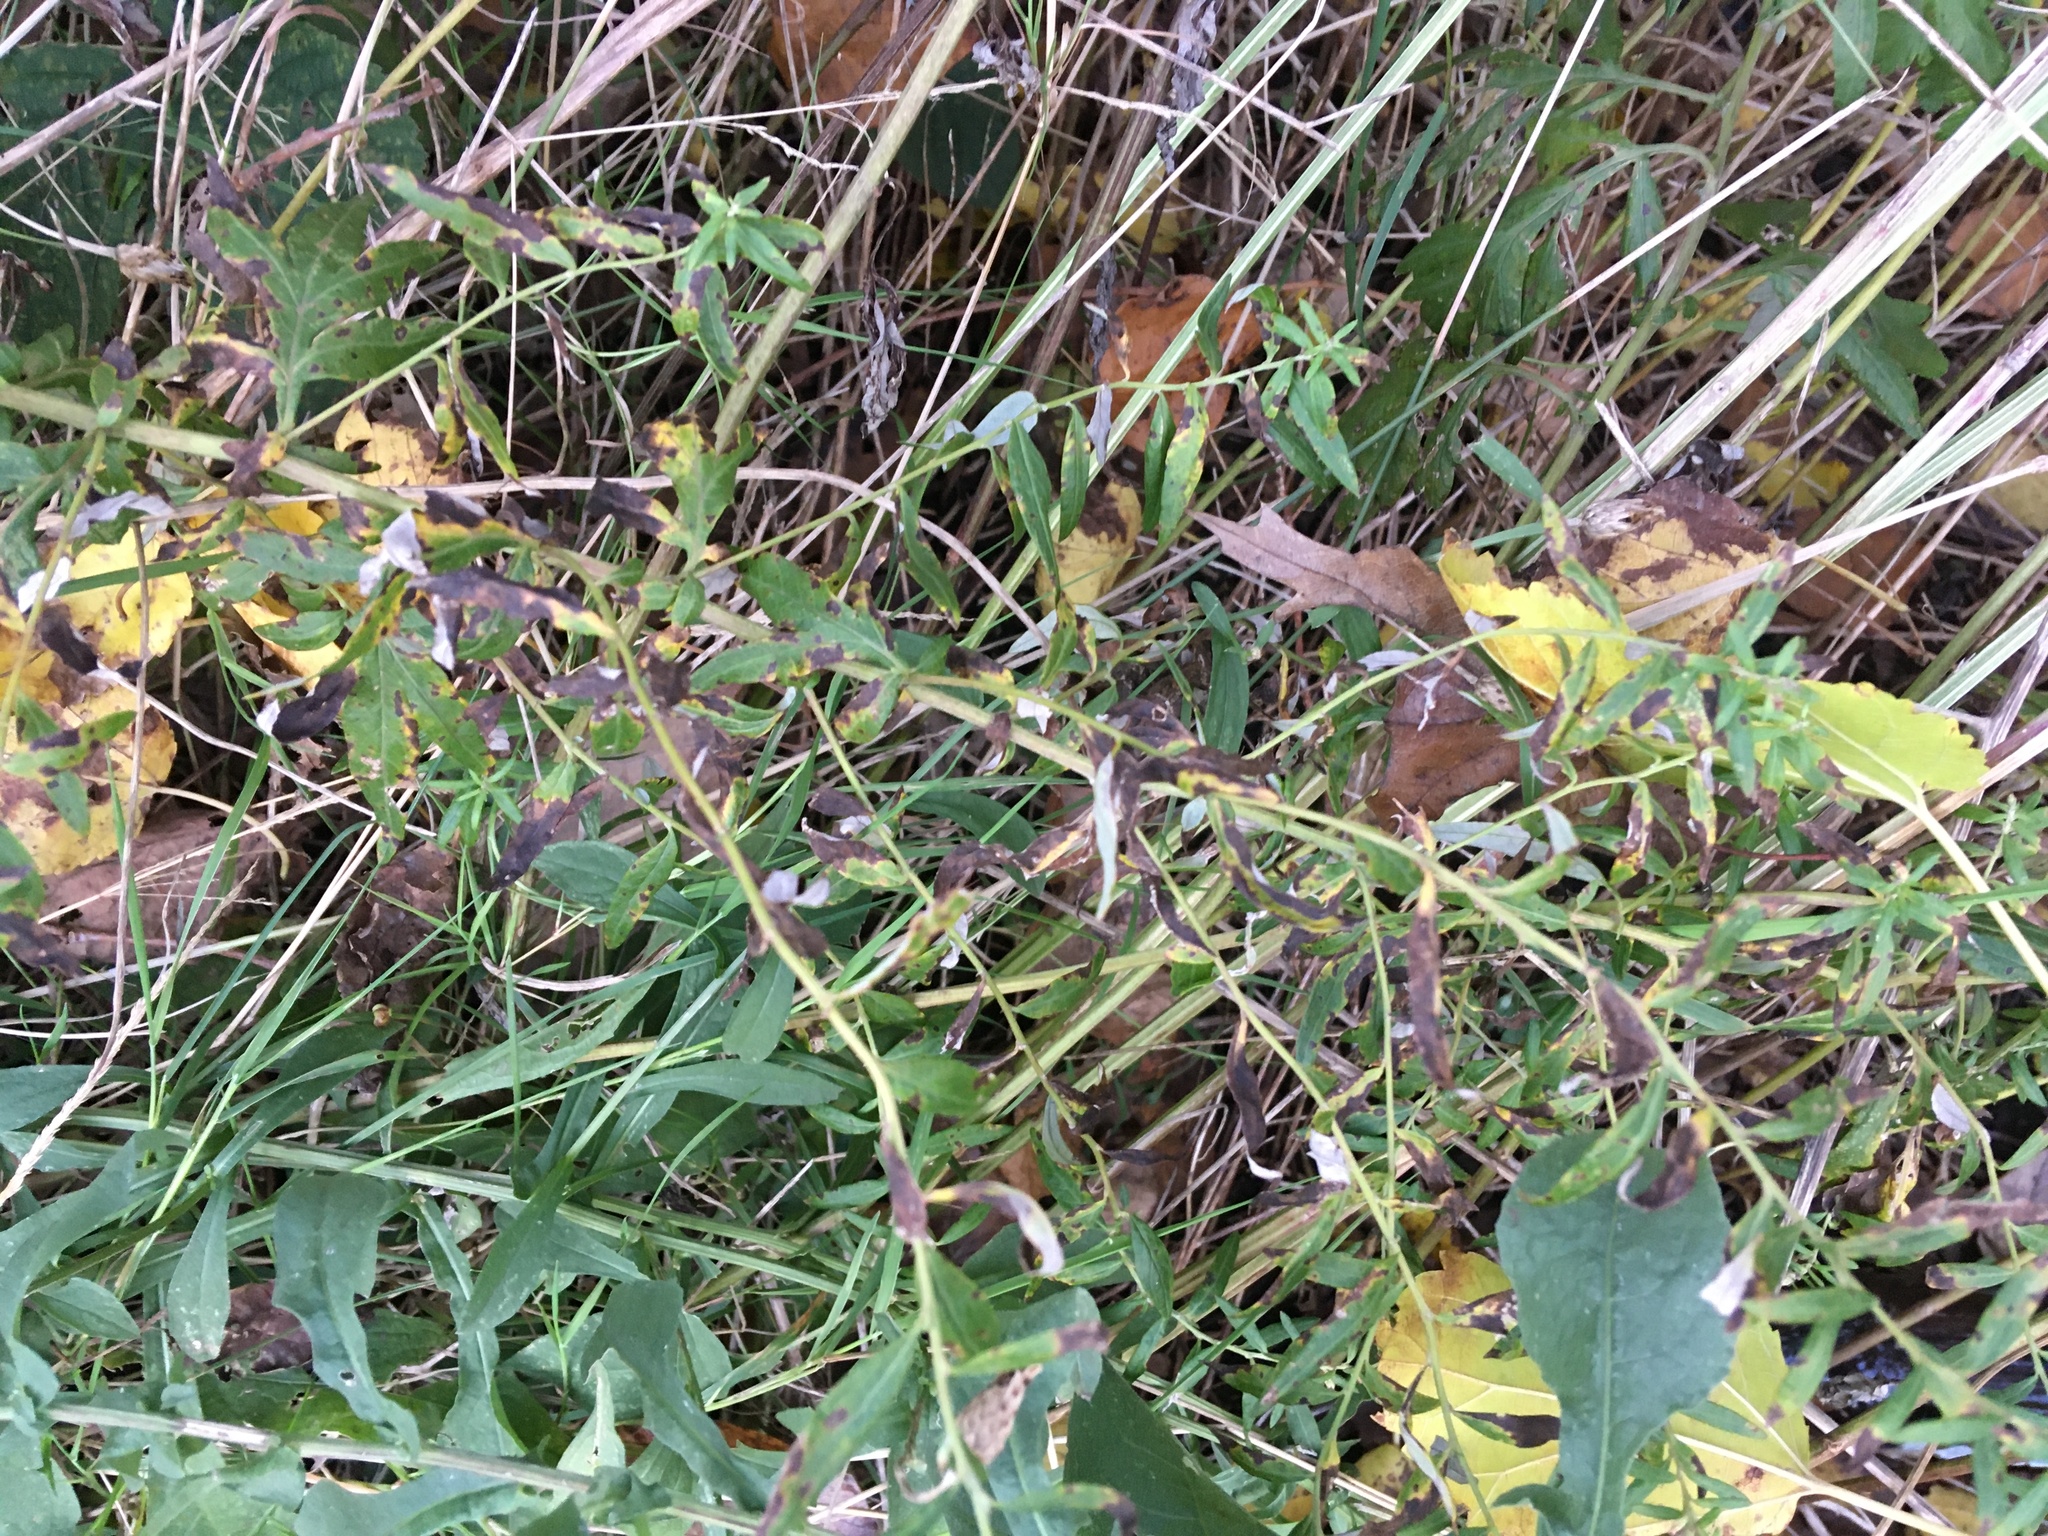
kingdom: Plantae
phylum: Tracheophyta
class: Magnoliopsida
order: Asterales
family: Asteraceae
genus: Artemisia
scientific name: Artemisia vulgaris
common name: Mugwort
